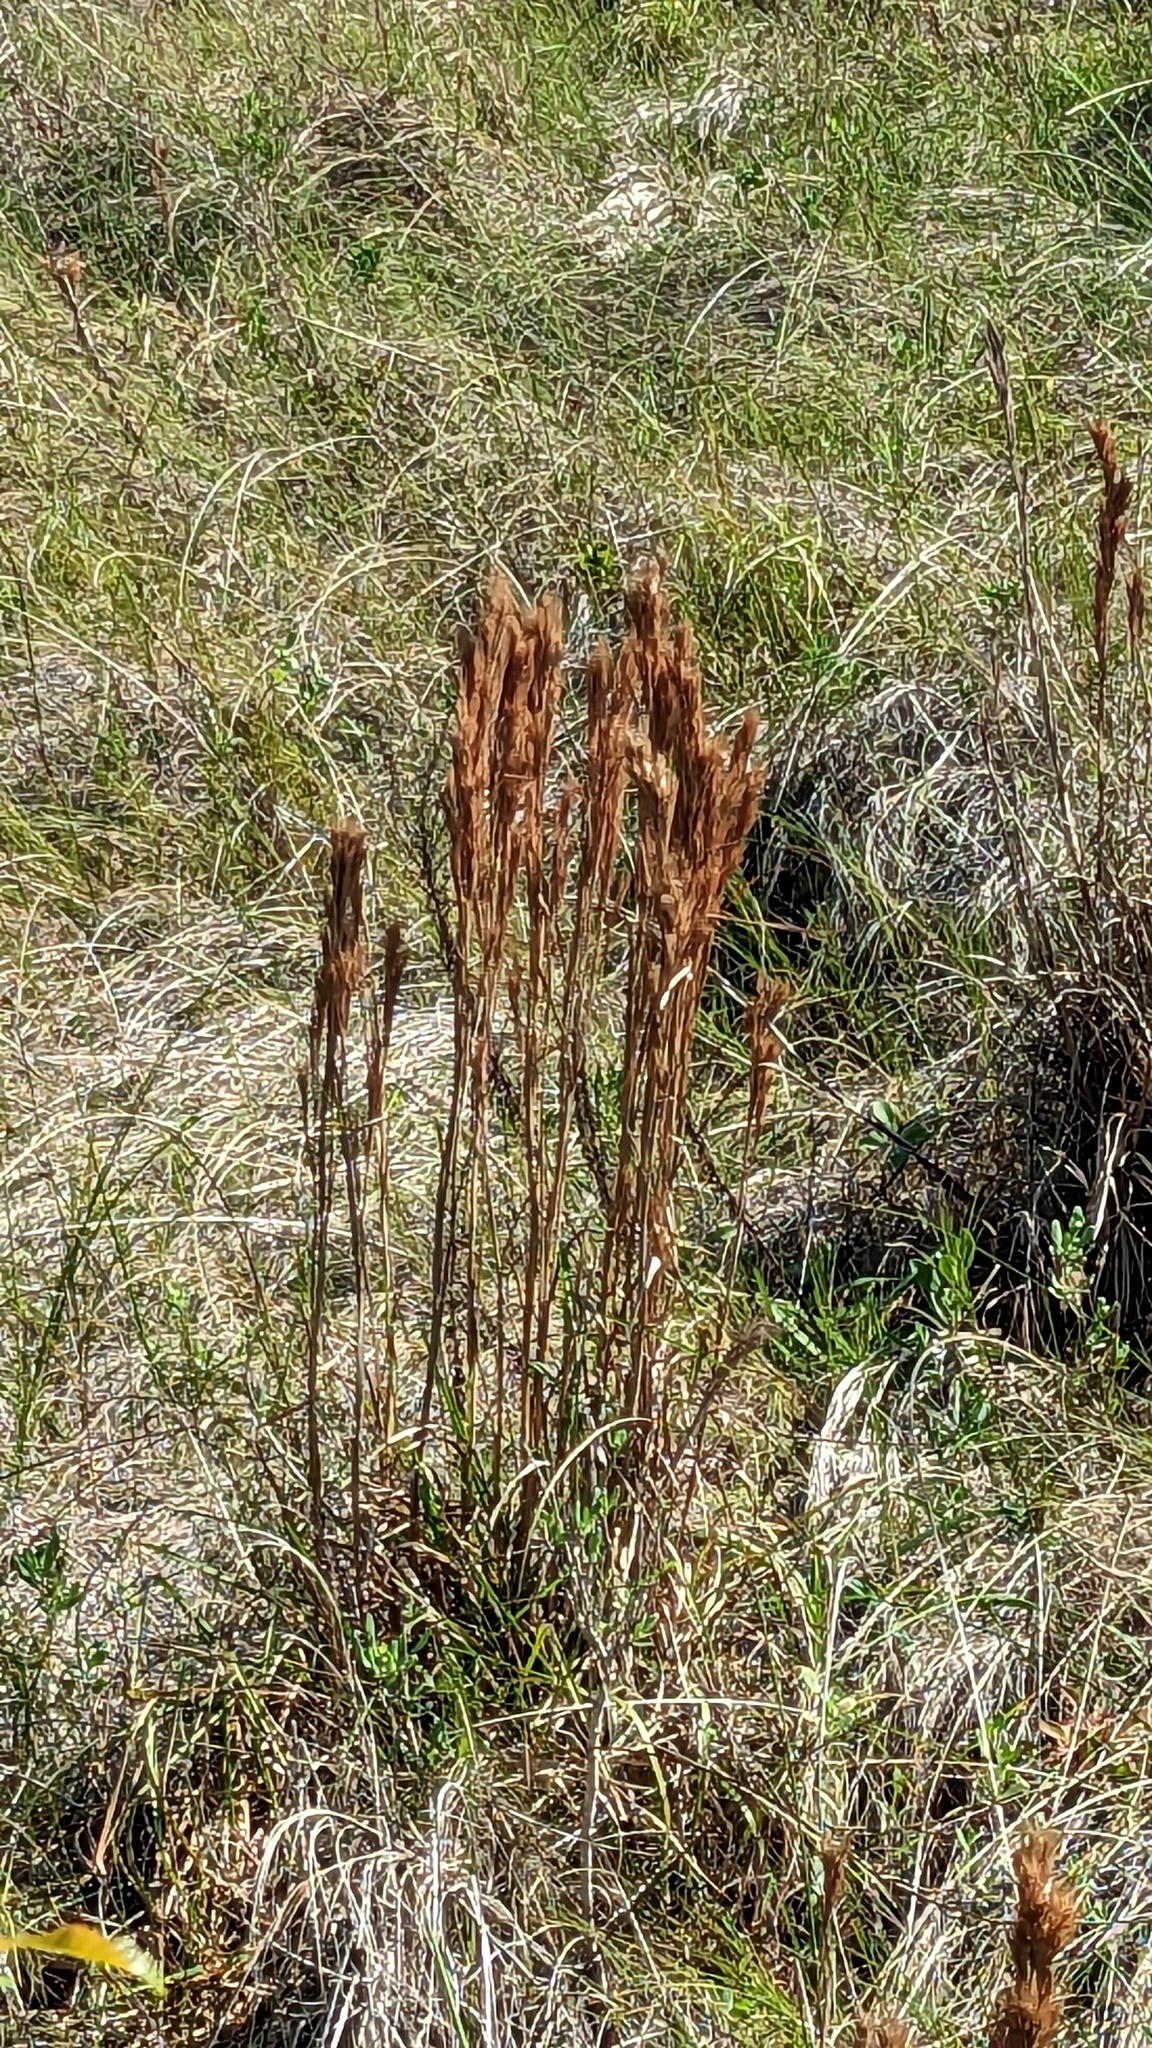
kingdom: Plantae
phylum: Tracheophyta
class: Liliopsida
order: Poales
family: Poaceae
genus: Andropogon
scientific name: Andropogon tenuispatheus
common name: Bushy bluestem
